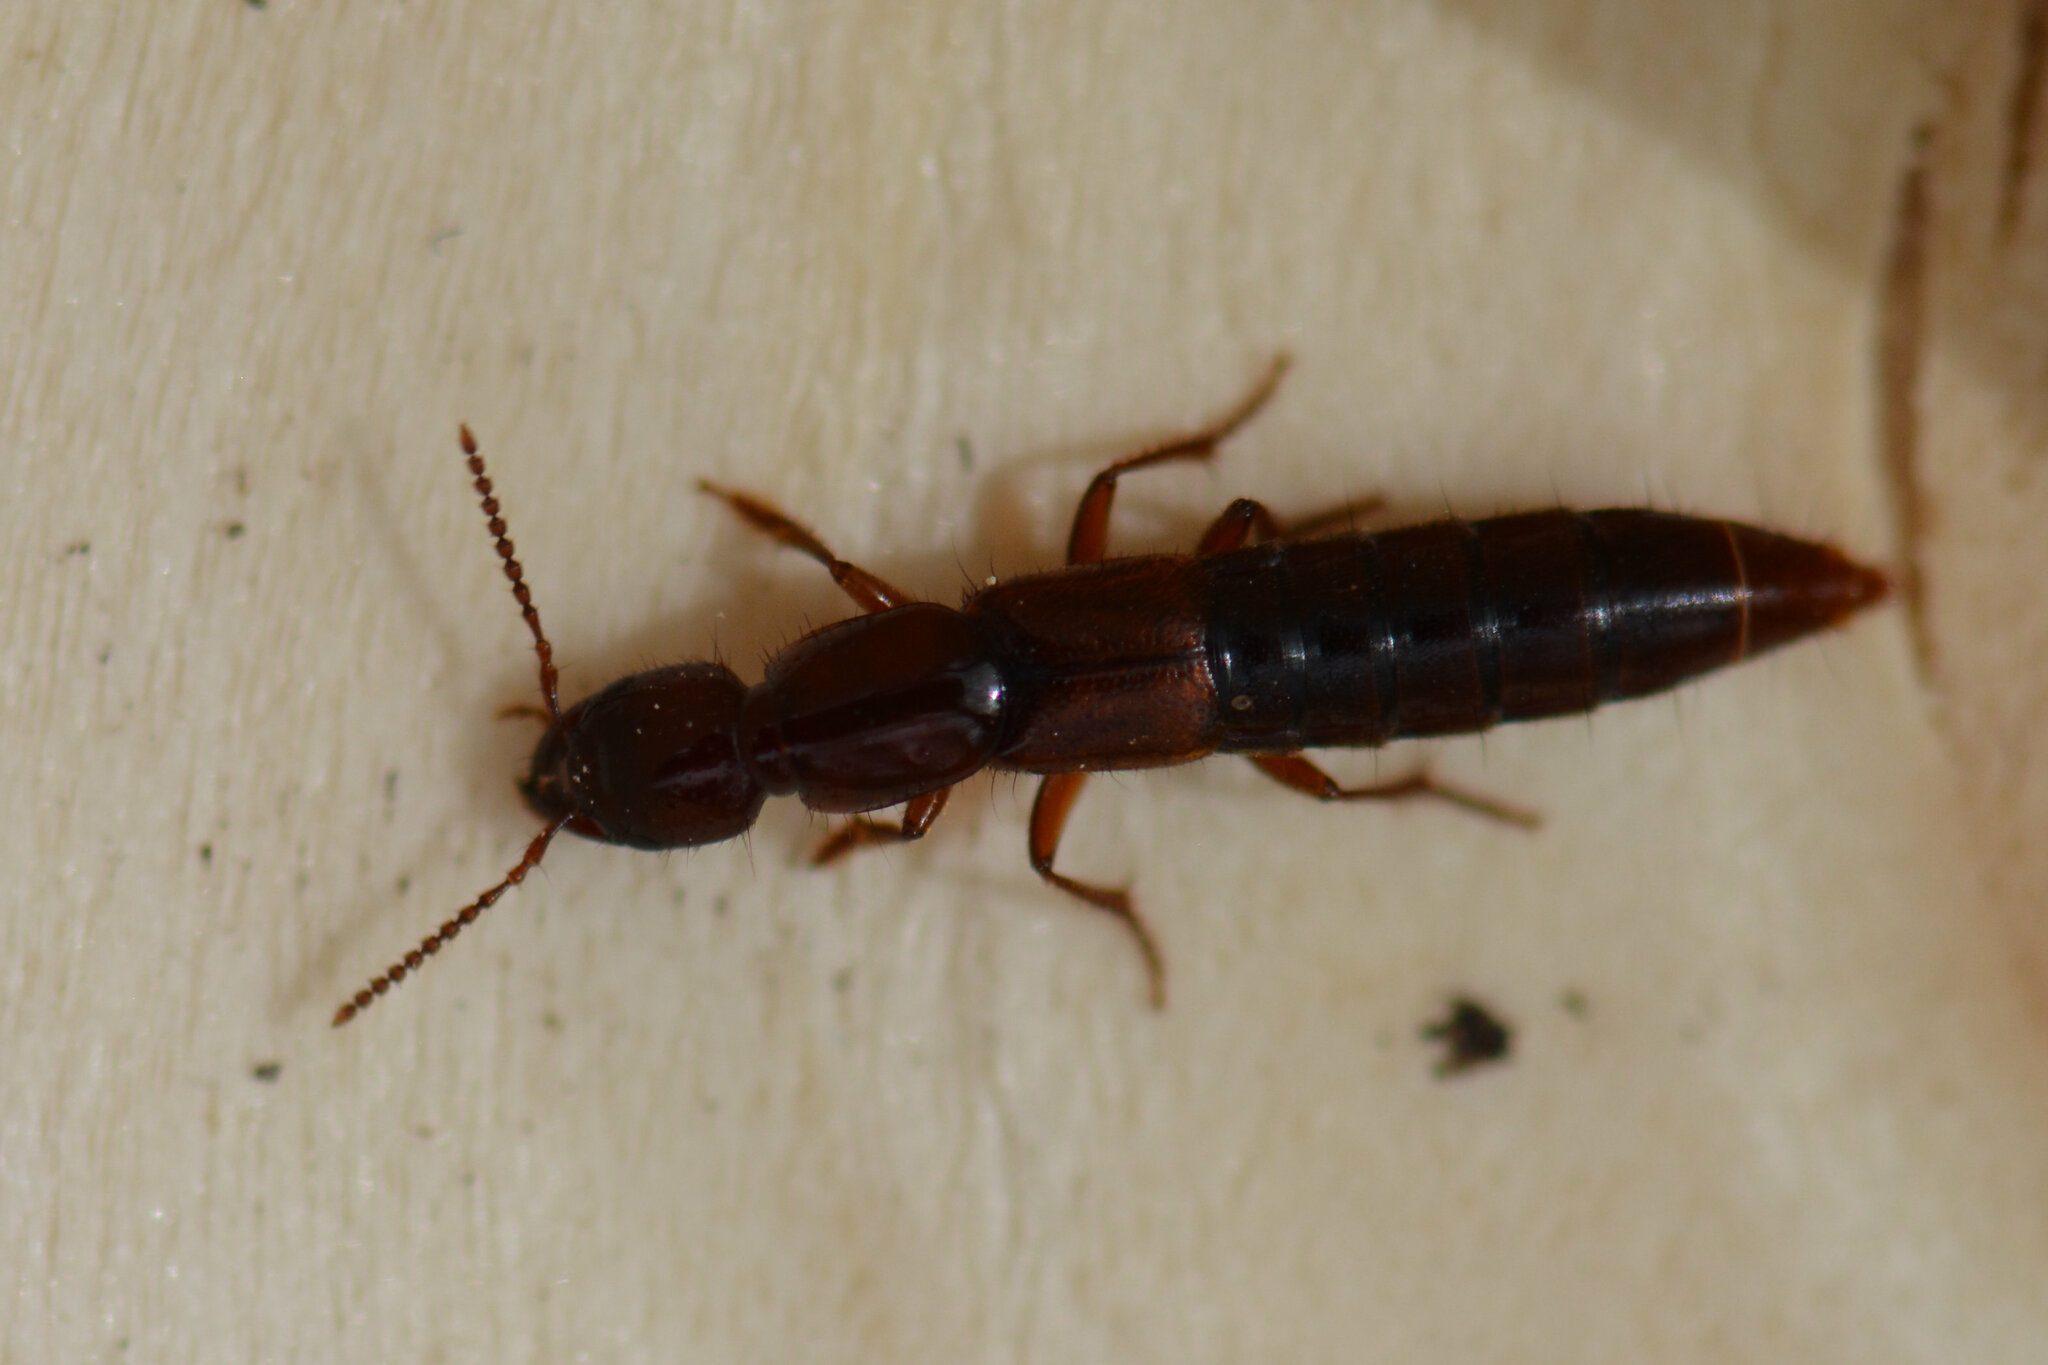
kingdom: Animalia
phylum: Arthropoda
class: Insecta
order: Coleoptera
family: Staphylinidae
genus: Othius
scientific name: Othius punctulatus
